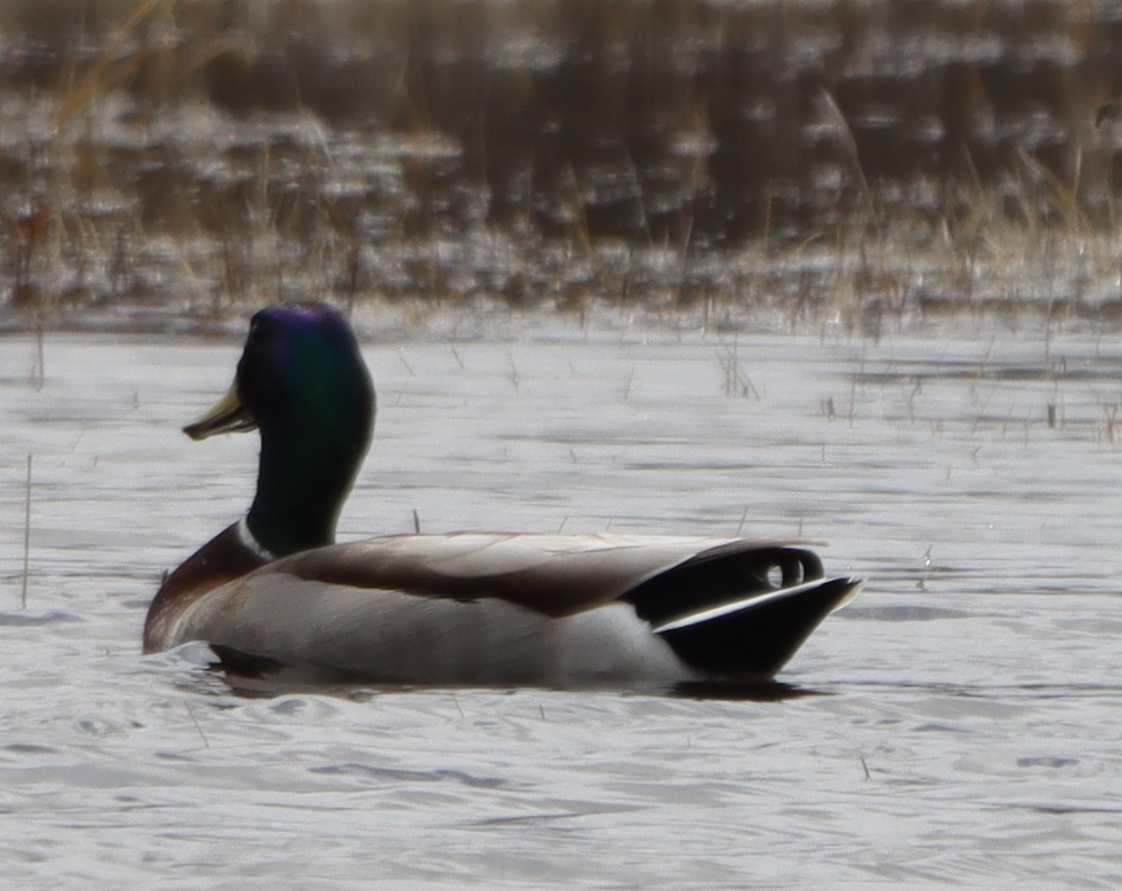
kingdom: Animalia
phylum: Chordata
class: Aves
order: Anseriformes
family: Anatidae
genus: Anas
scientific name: Anas platyrhynchos
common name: Mallard
